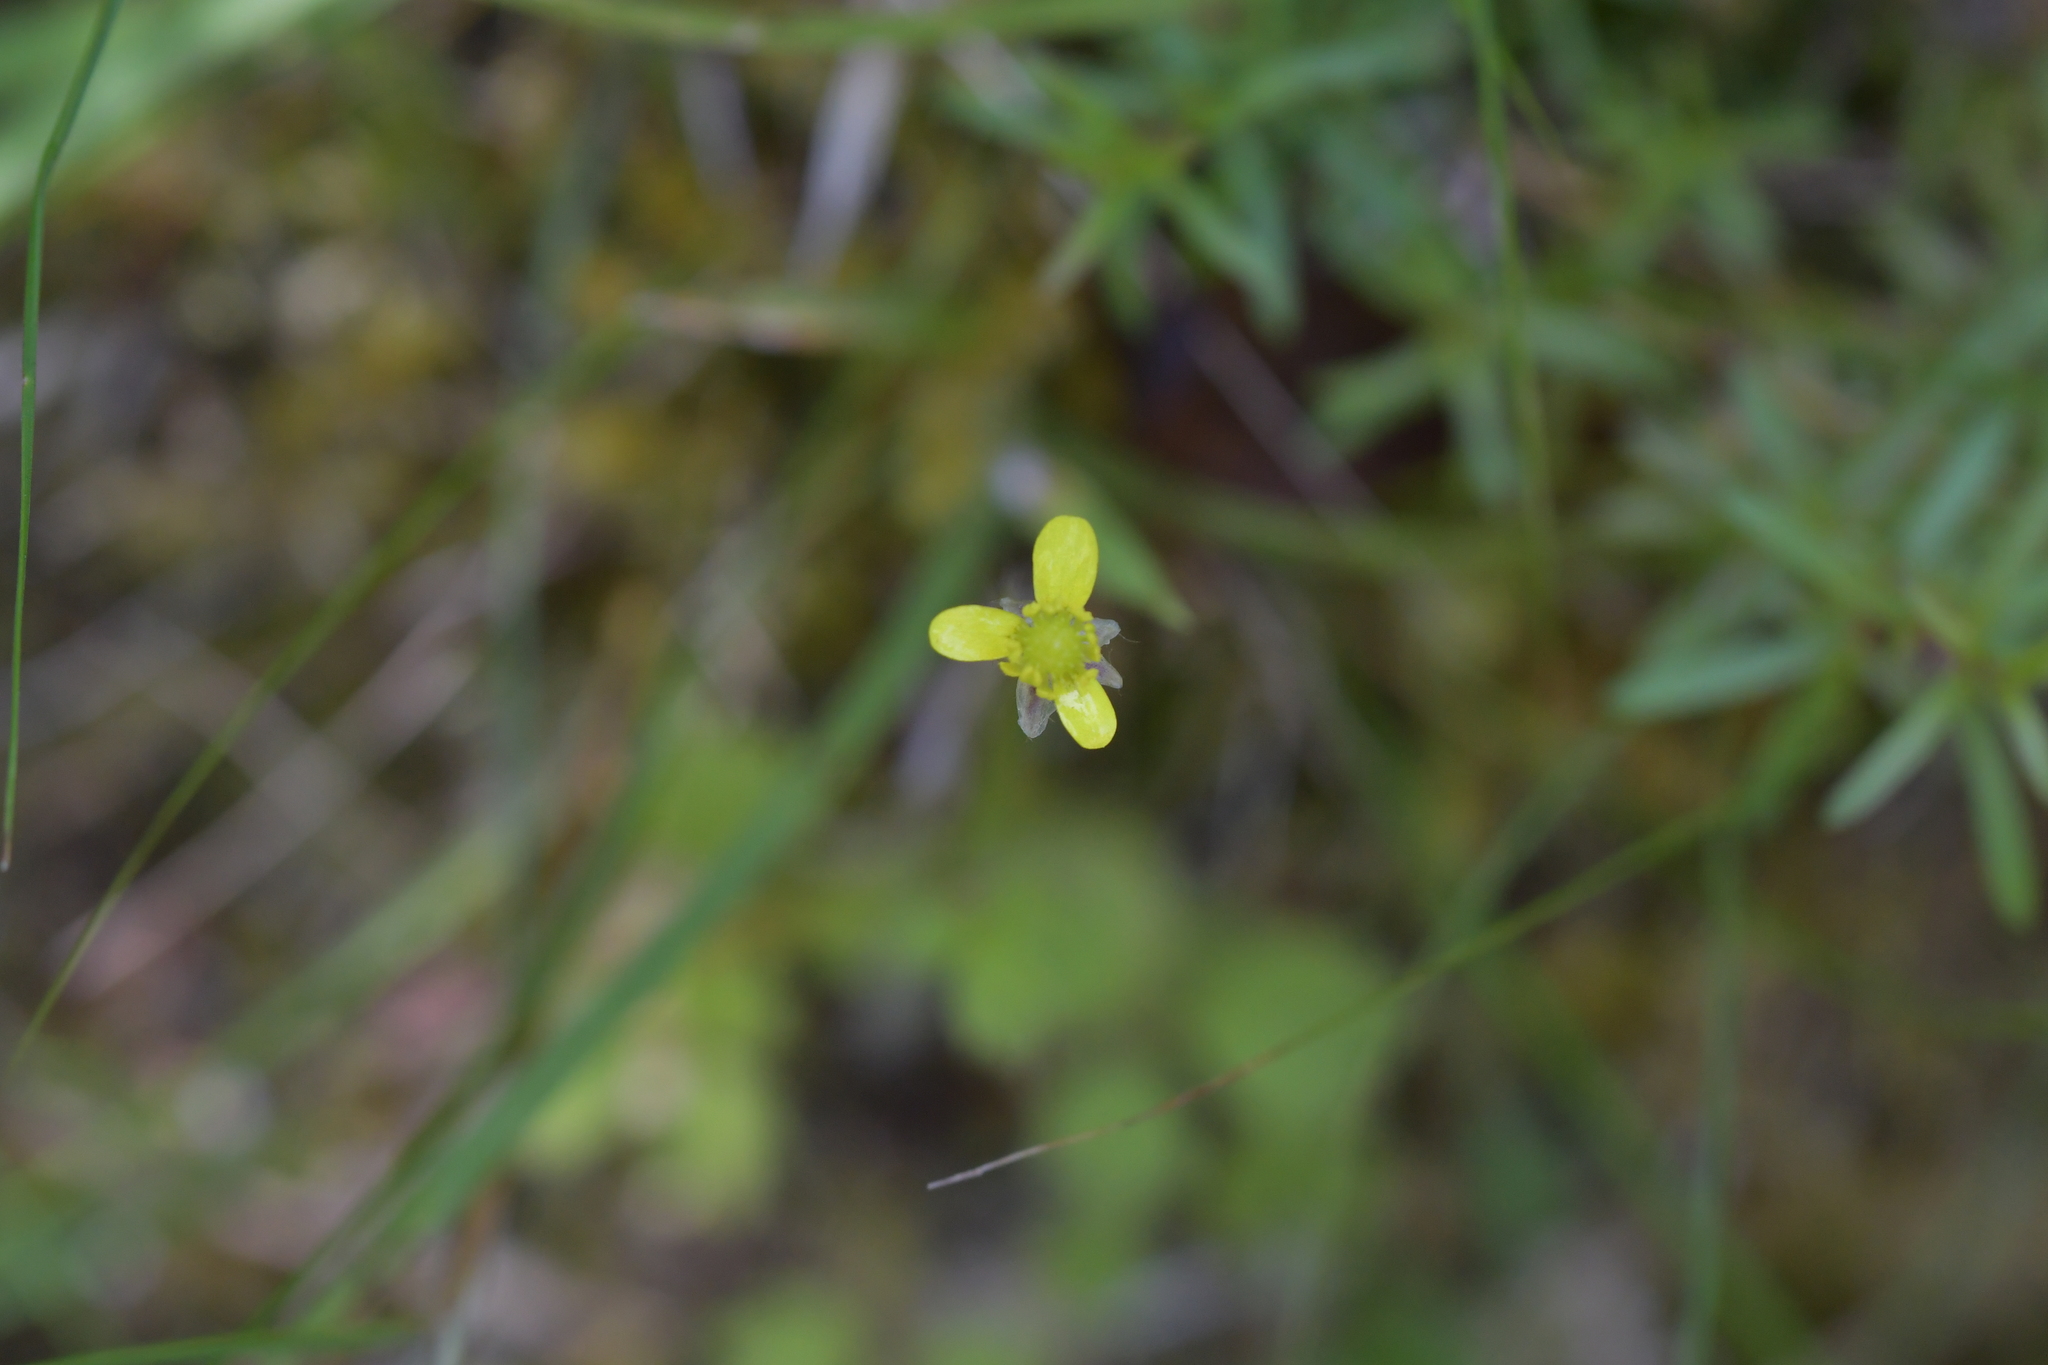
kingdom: Plantae
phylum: Tracheophyta
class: Magnoliopsida
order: Ranunculales
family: Ranunculaceae
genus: Ranunculus
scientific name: Ranunculus reflexus
